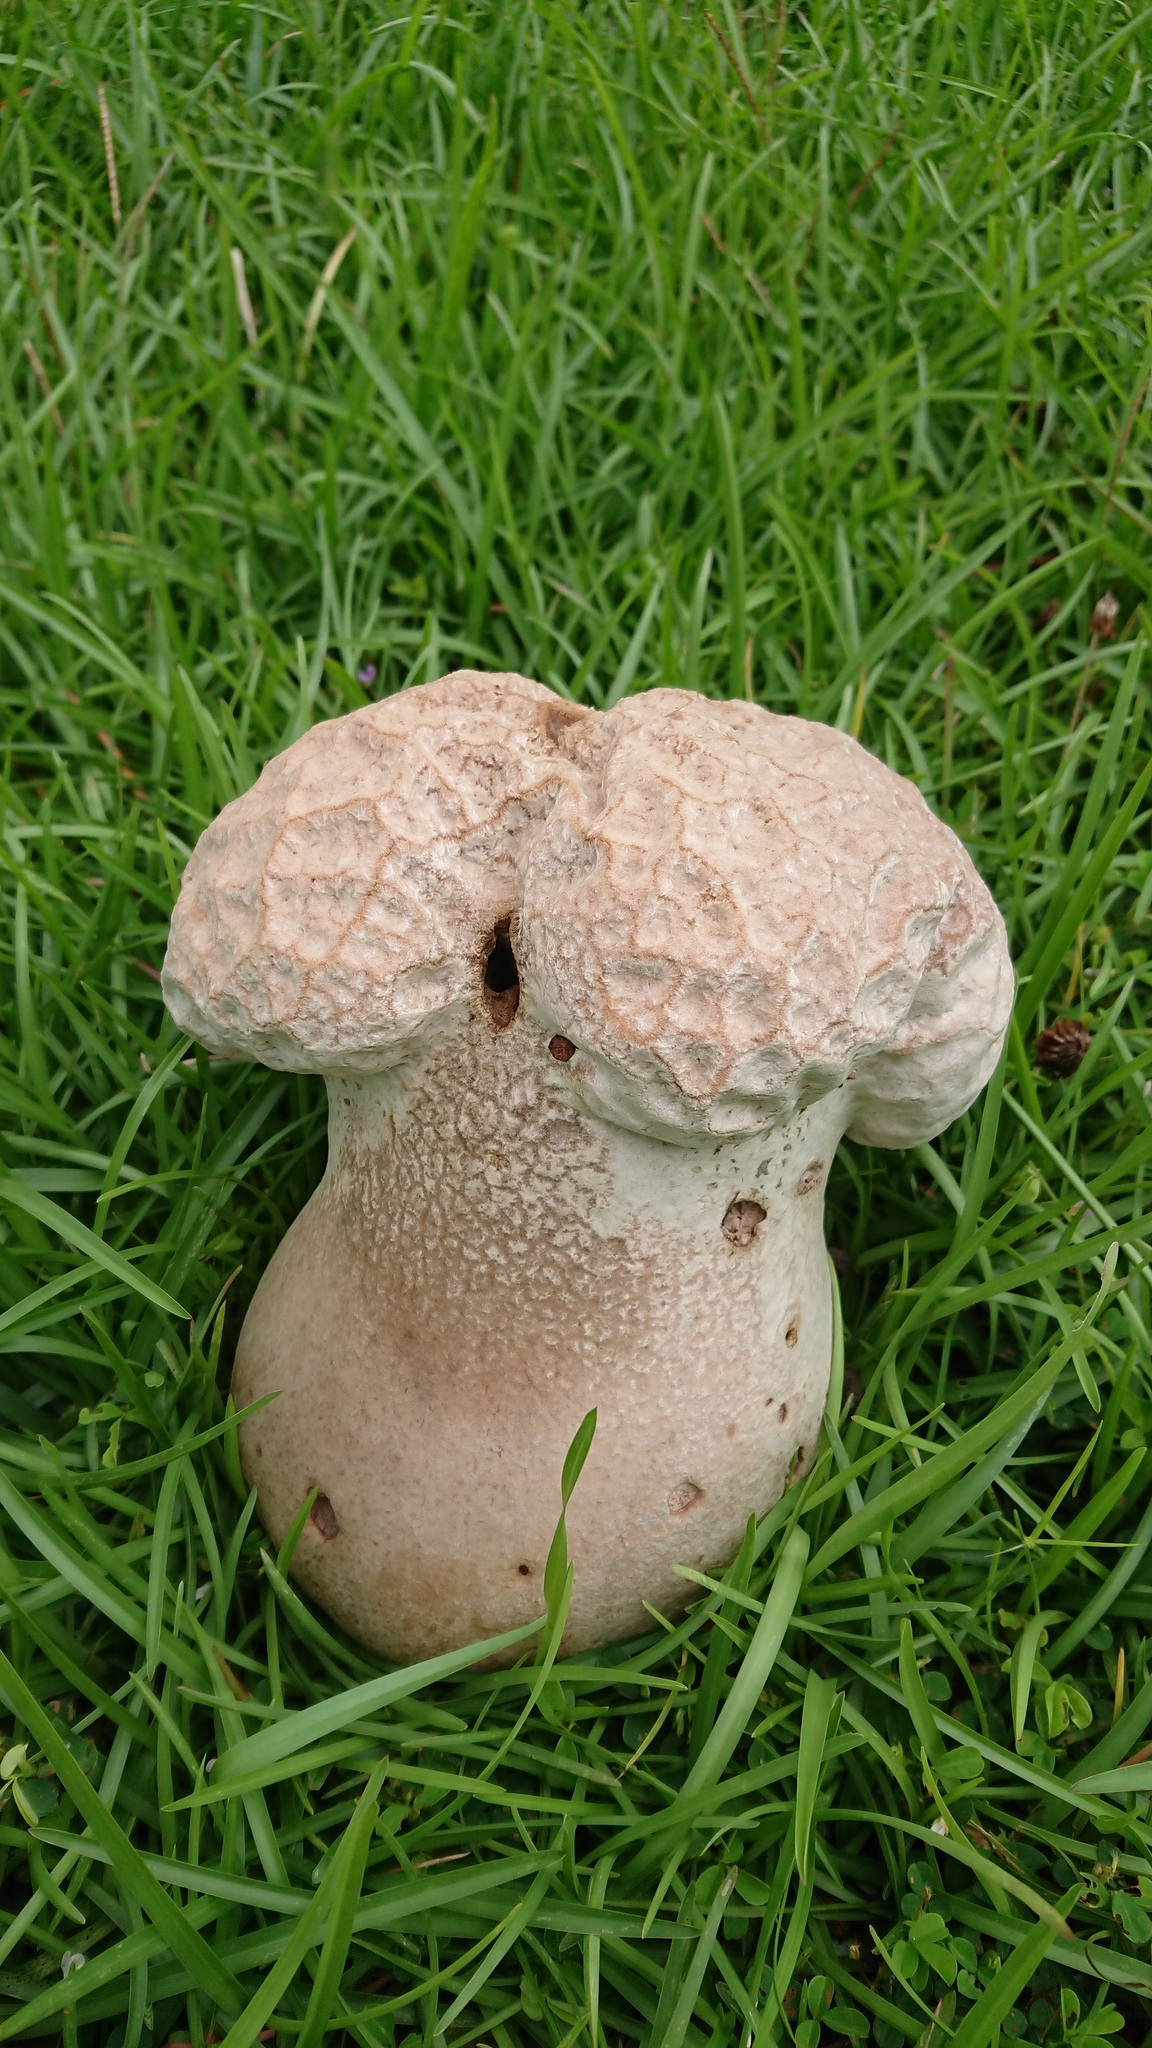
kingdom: Fungi
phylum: Basidiomycota
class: Agaricomycetes
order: Agaricales
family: Lycoperdaceae
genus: Calvatia
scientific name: Calvatia lilacina
